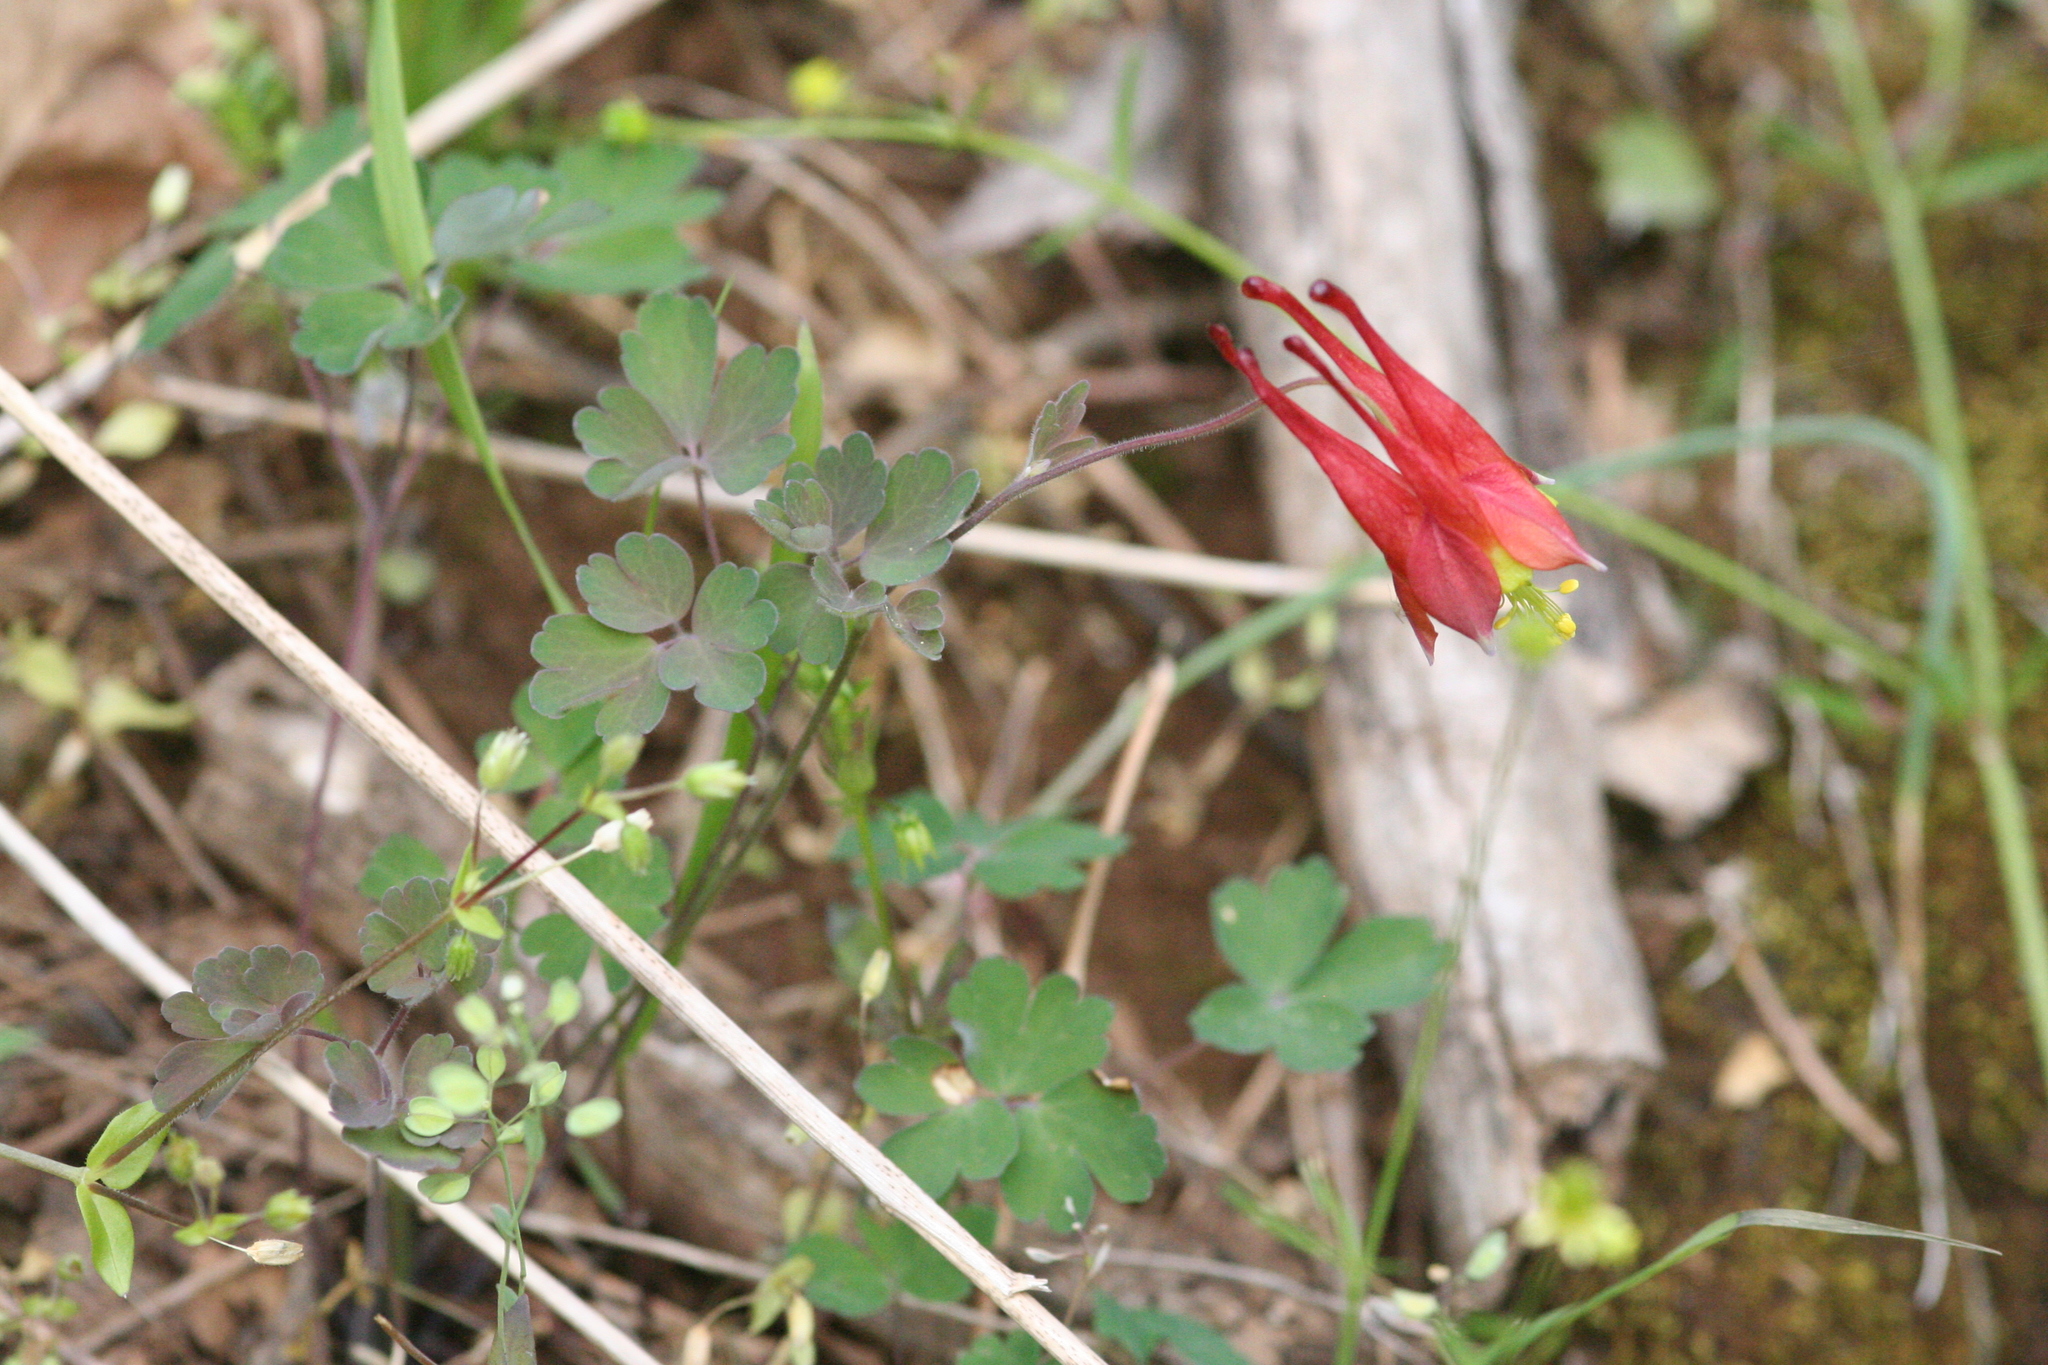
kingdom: Plantae
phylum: Tracheophyta
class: Magnoliopsida
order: Ranunculales
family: Ranunculaceae
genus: Aquilegia
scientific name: Aquilegia canadensis
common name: American columbine
